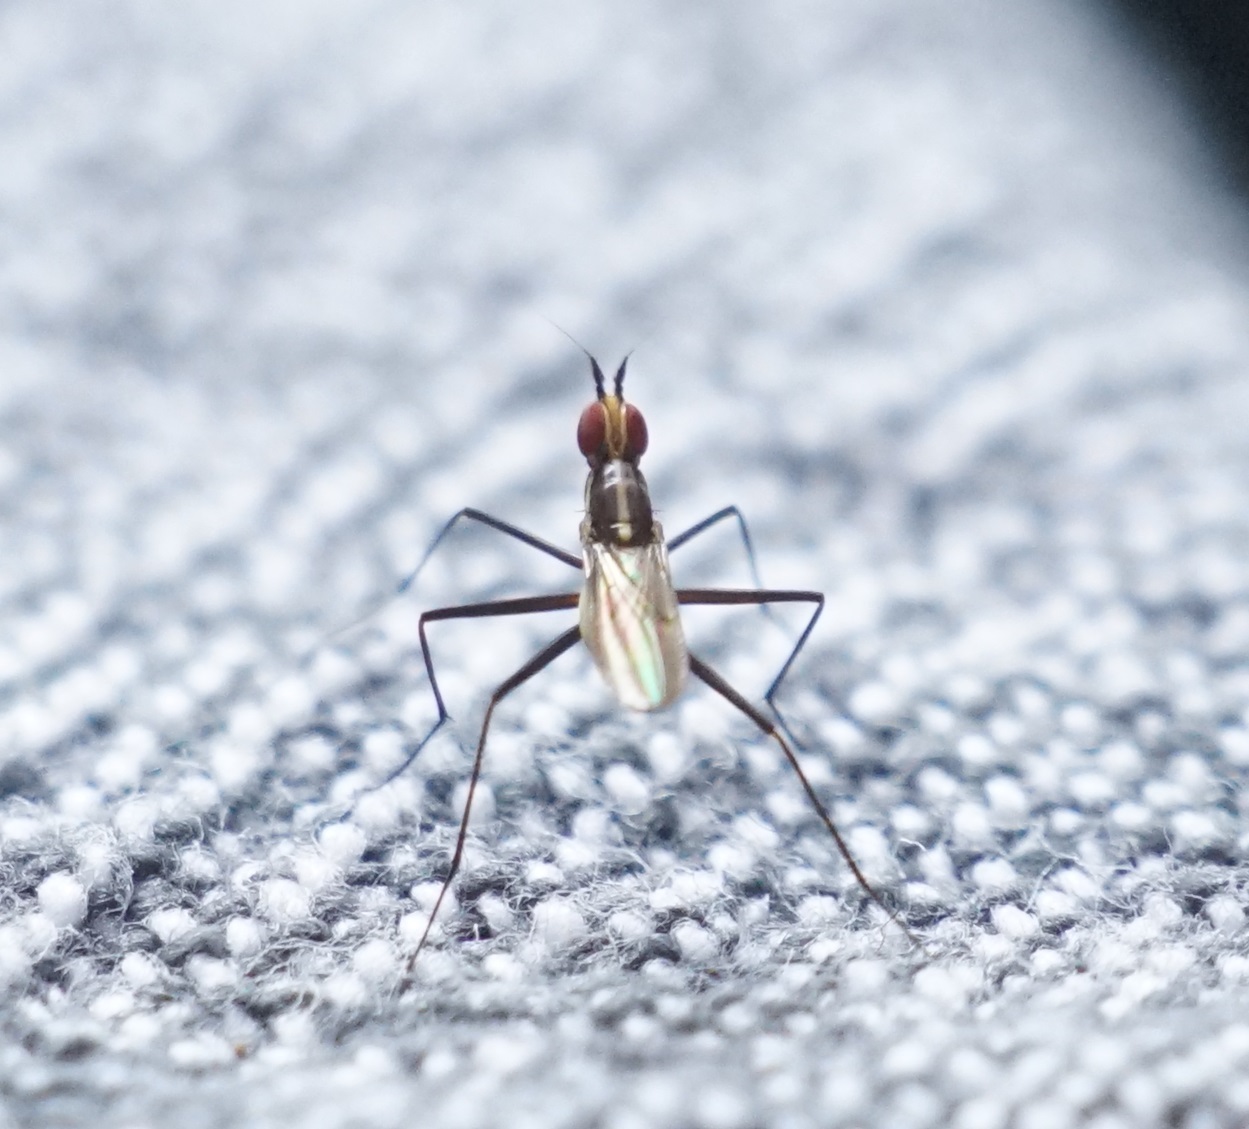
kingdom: Animalia
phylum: Arthropoda
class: Insecta
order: Diptera
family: Neriidae
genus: Telostylinus
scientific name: Telostylinus lineolatus
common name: Banana stalk fly
